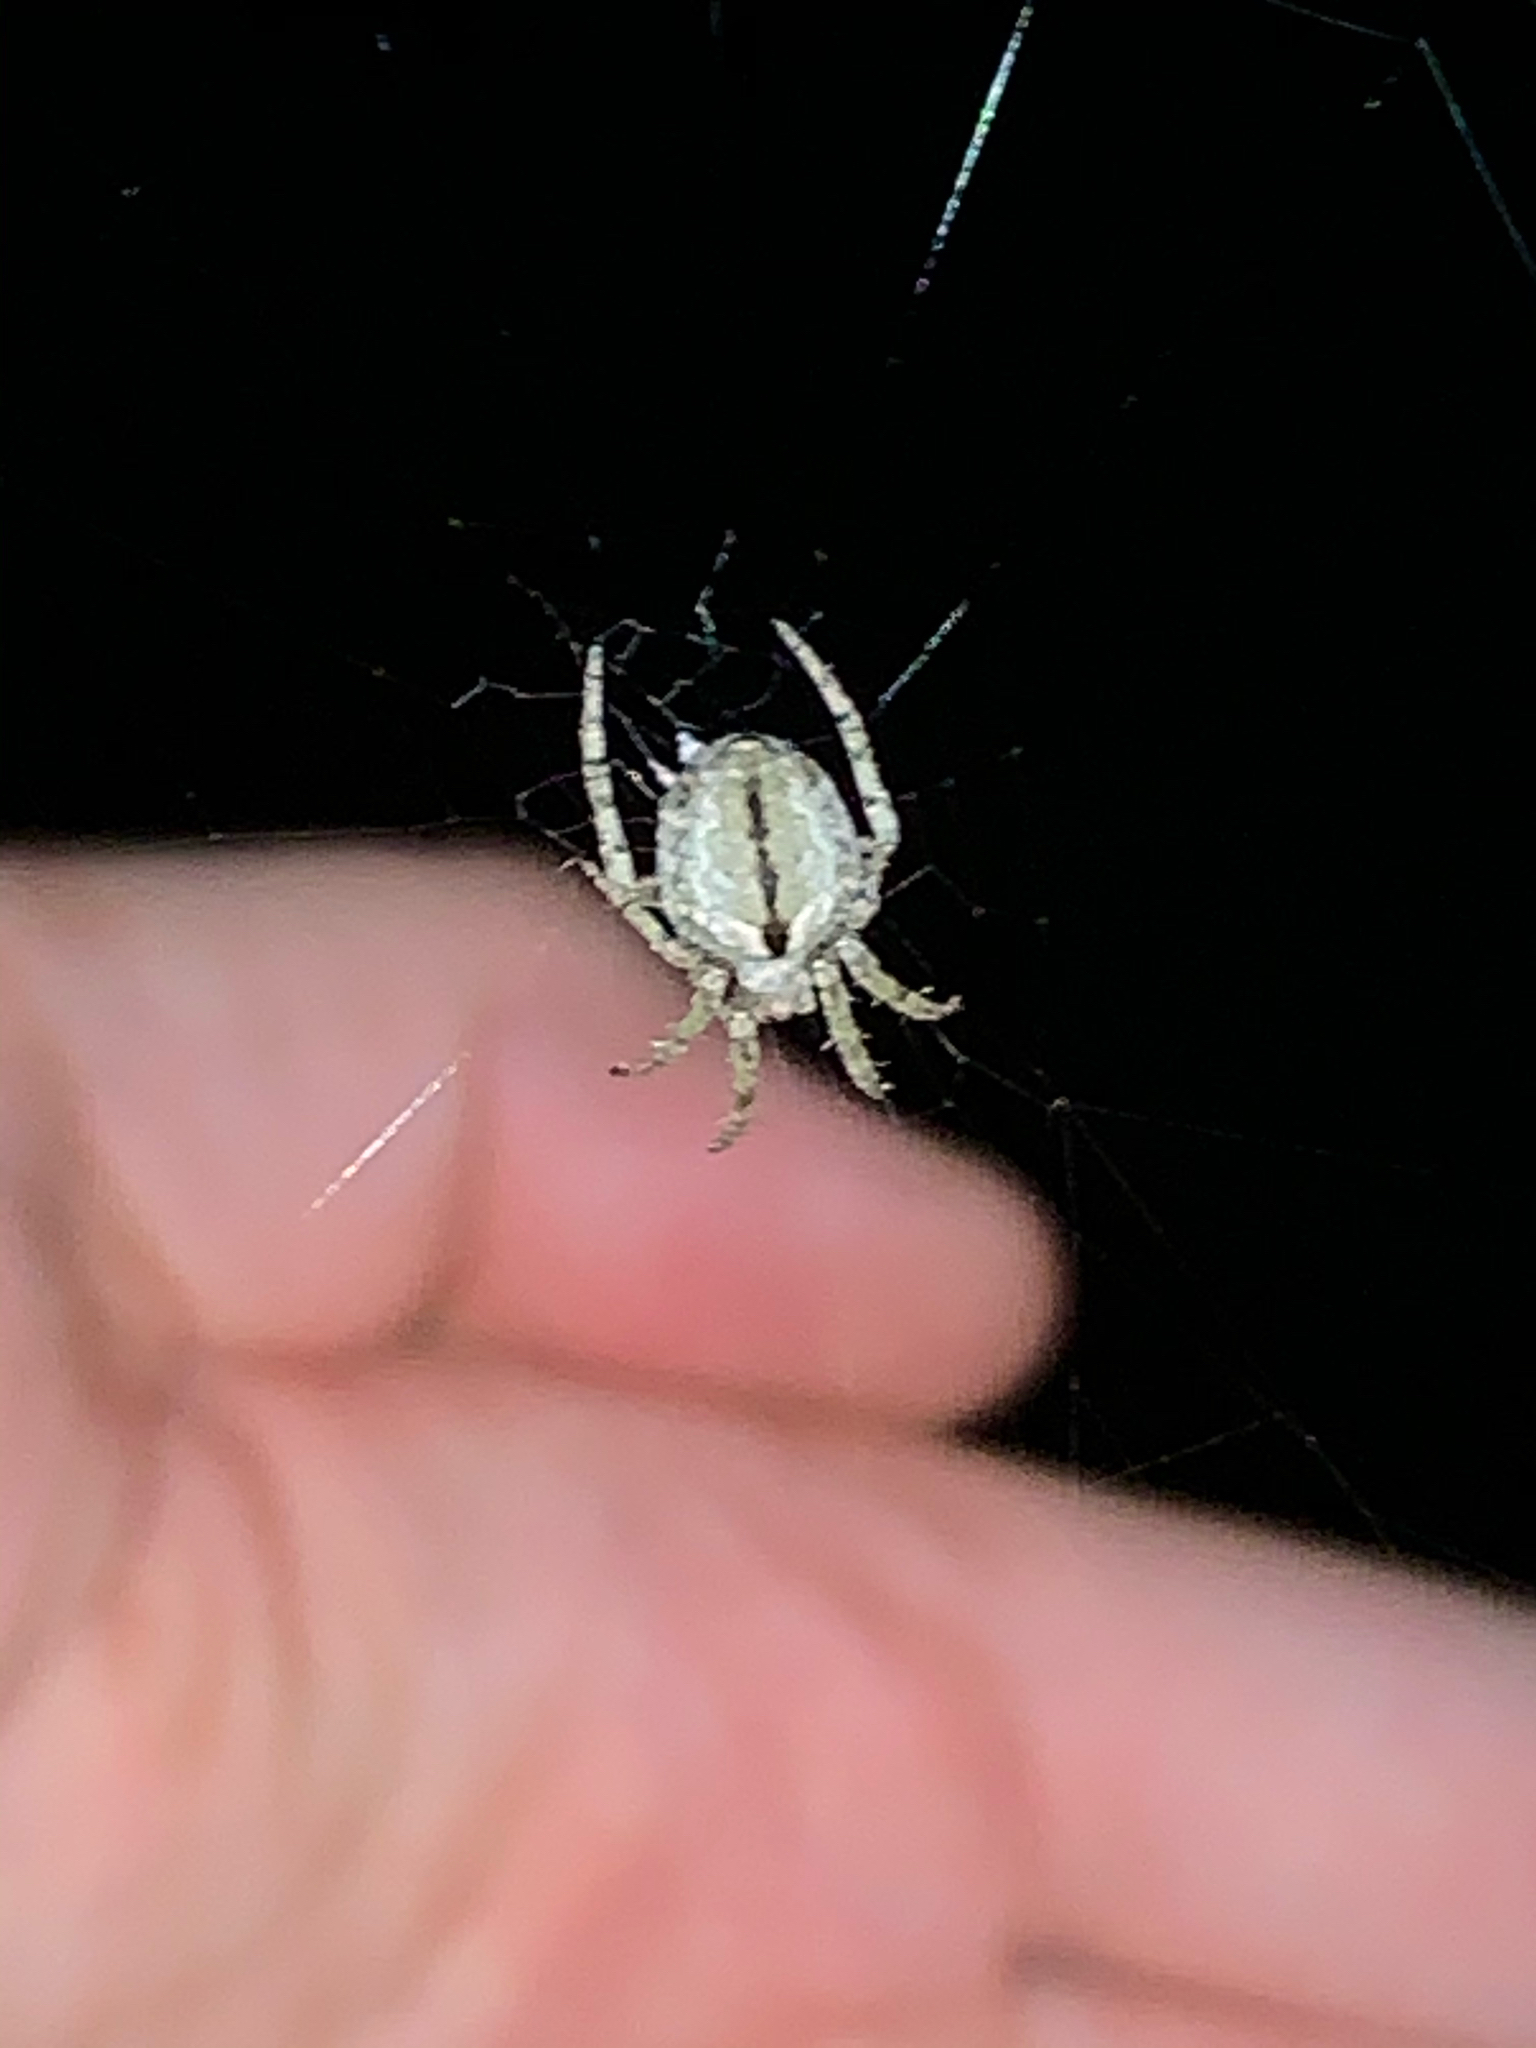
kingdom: Animalia
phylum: Arthropoda
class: Arachnida
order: Araneae
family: Araneidae
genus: Eustala
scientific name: Eustala
